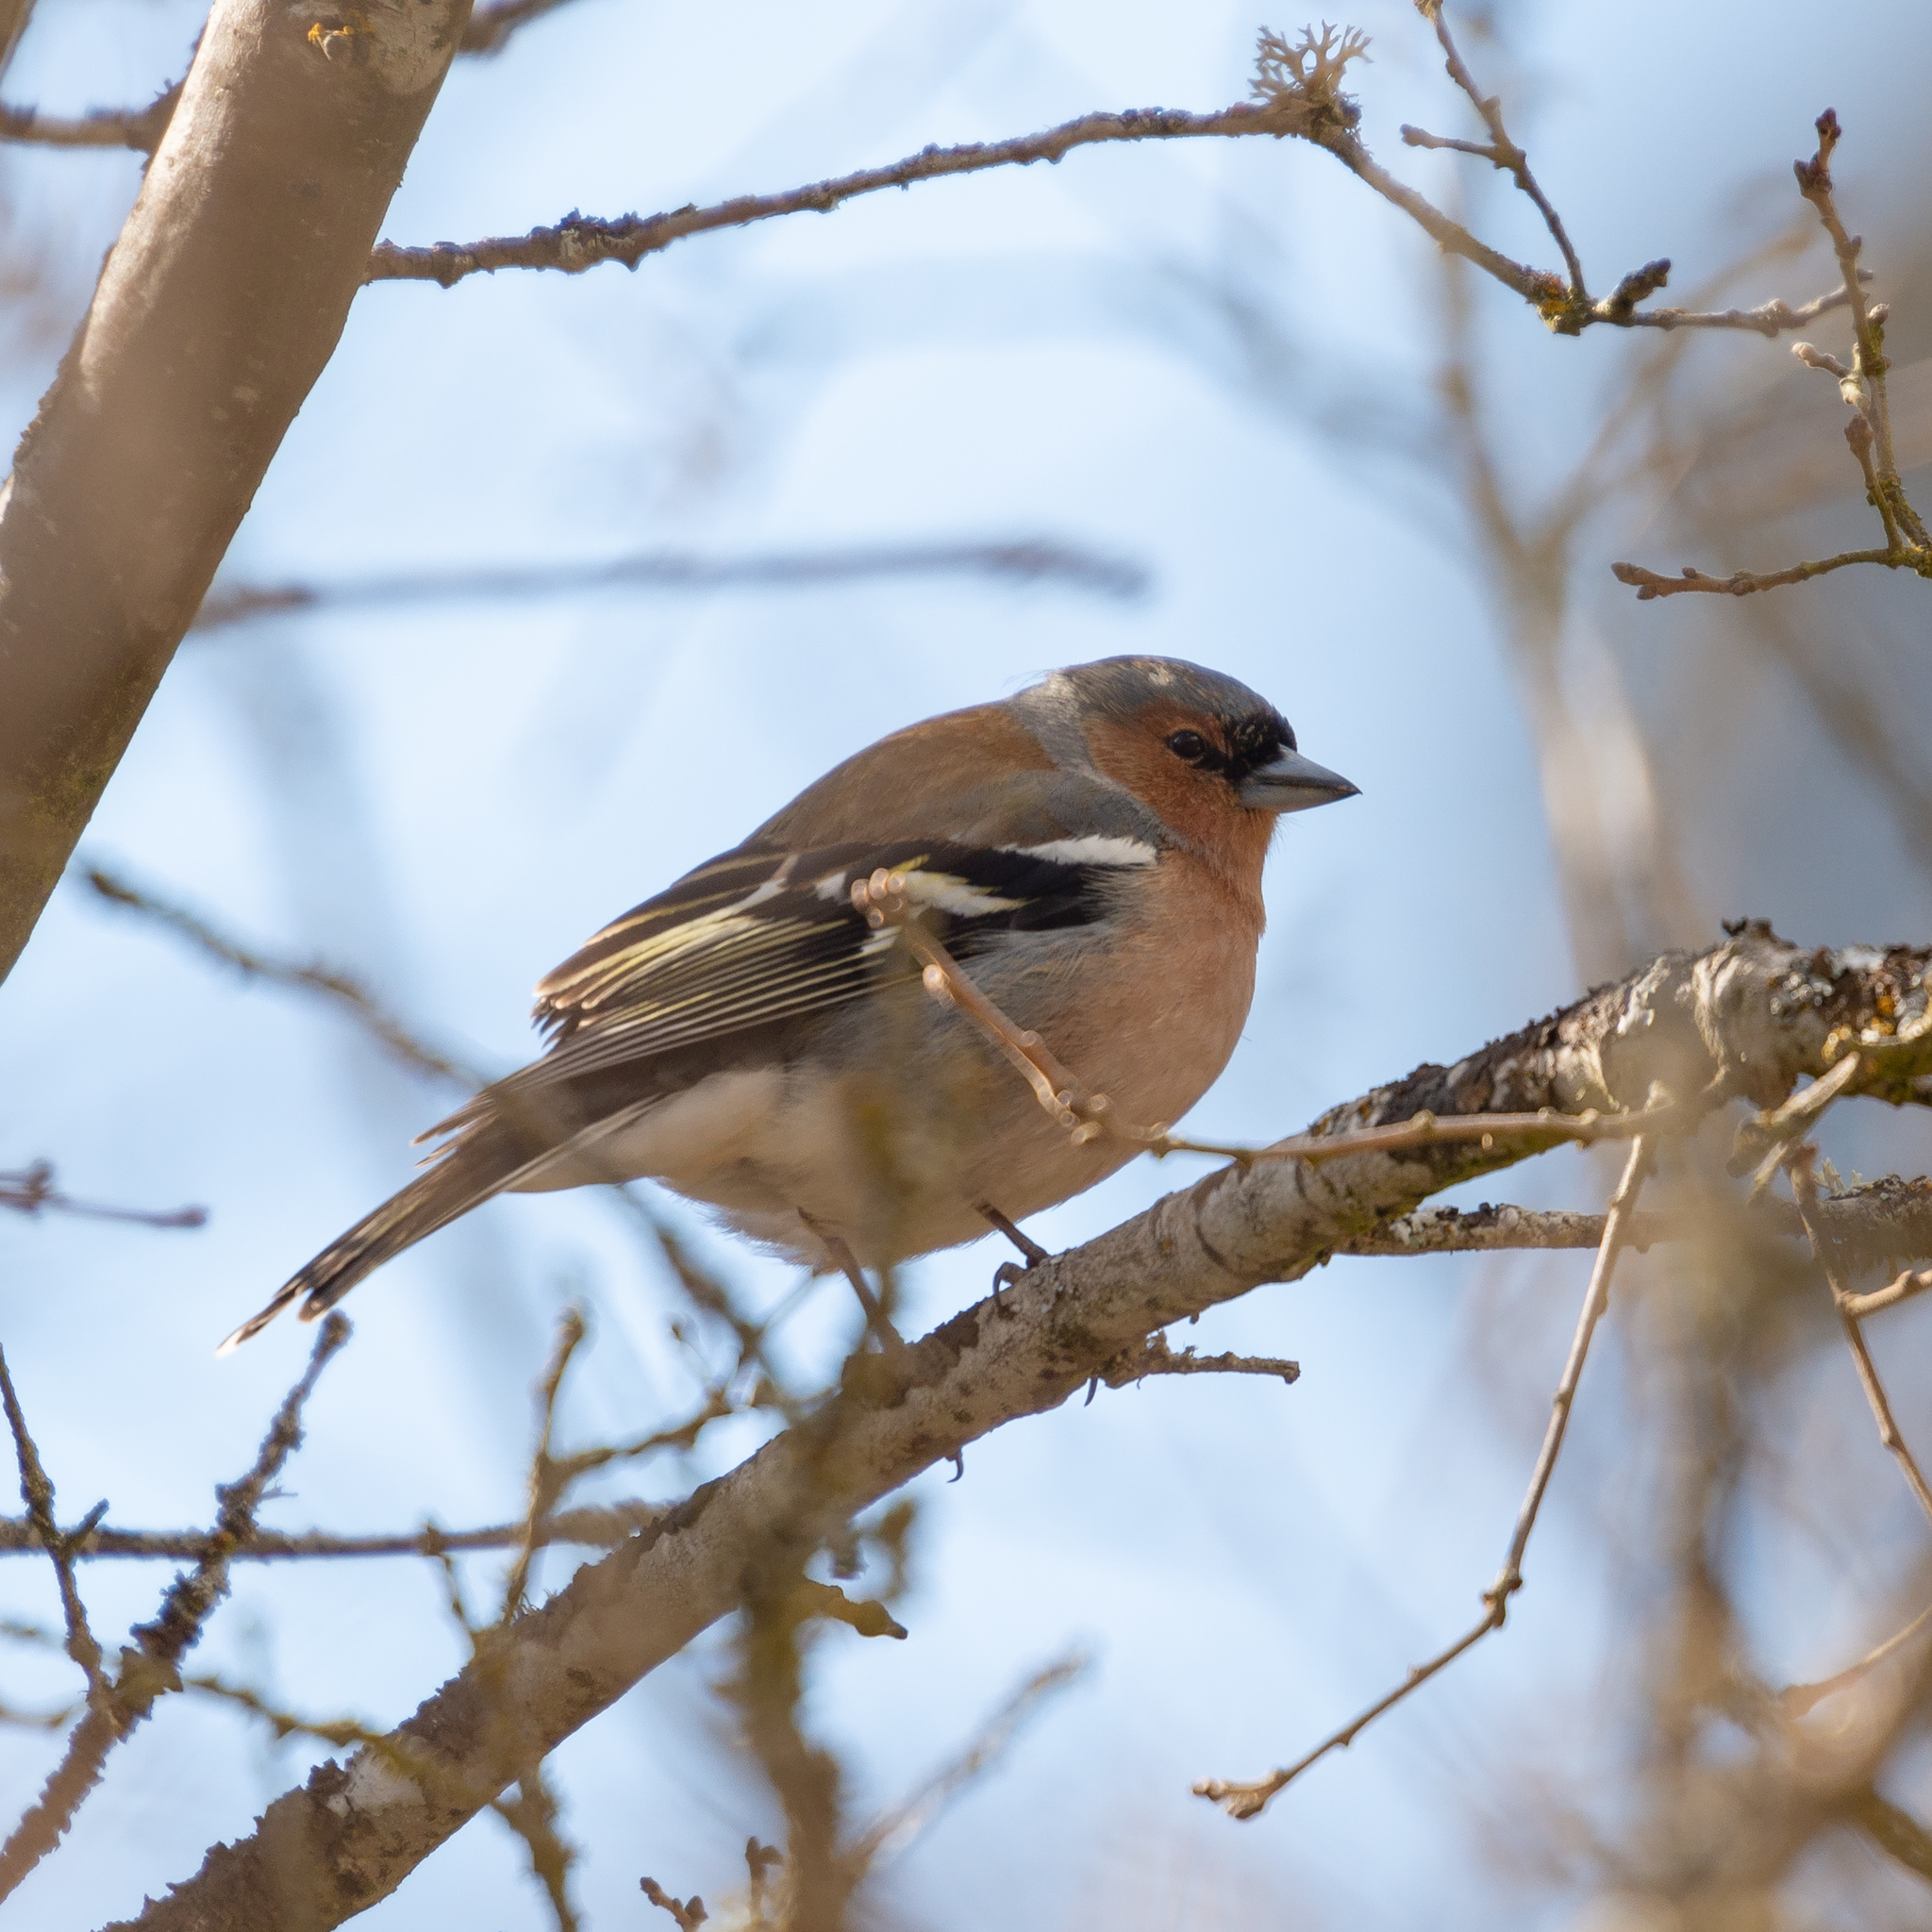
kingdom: Animalia
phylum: Chordata
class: Aves
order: Passeriformes
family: Fringillidae
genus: Fringilla
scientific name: Fringilla coelebs
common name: Common chaffinch
